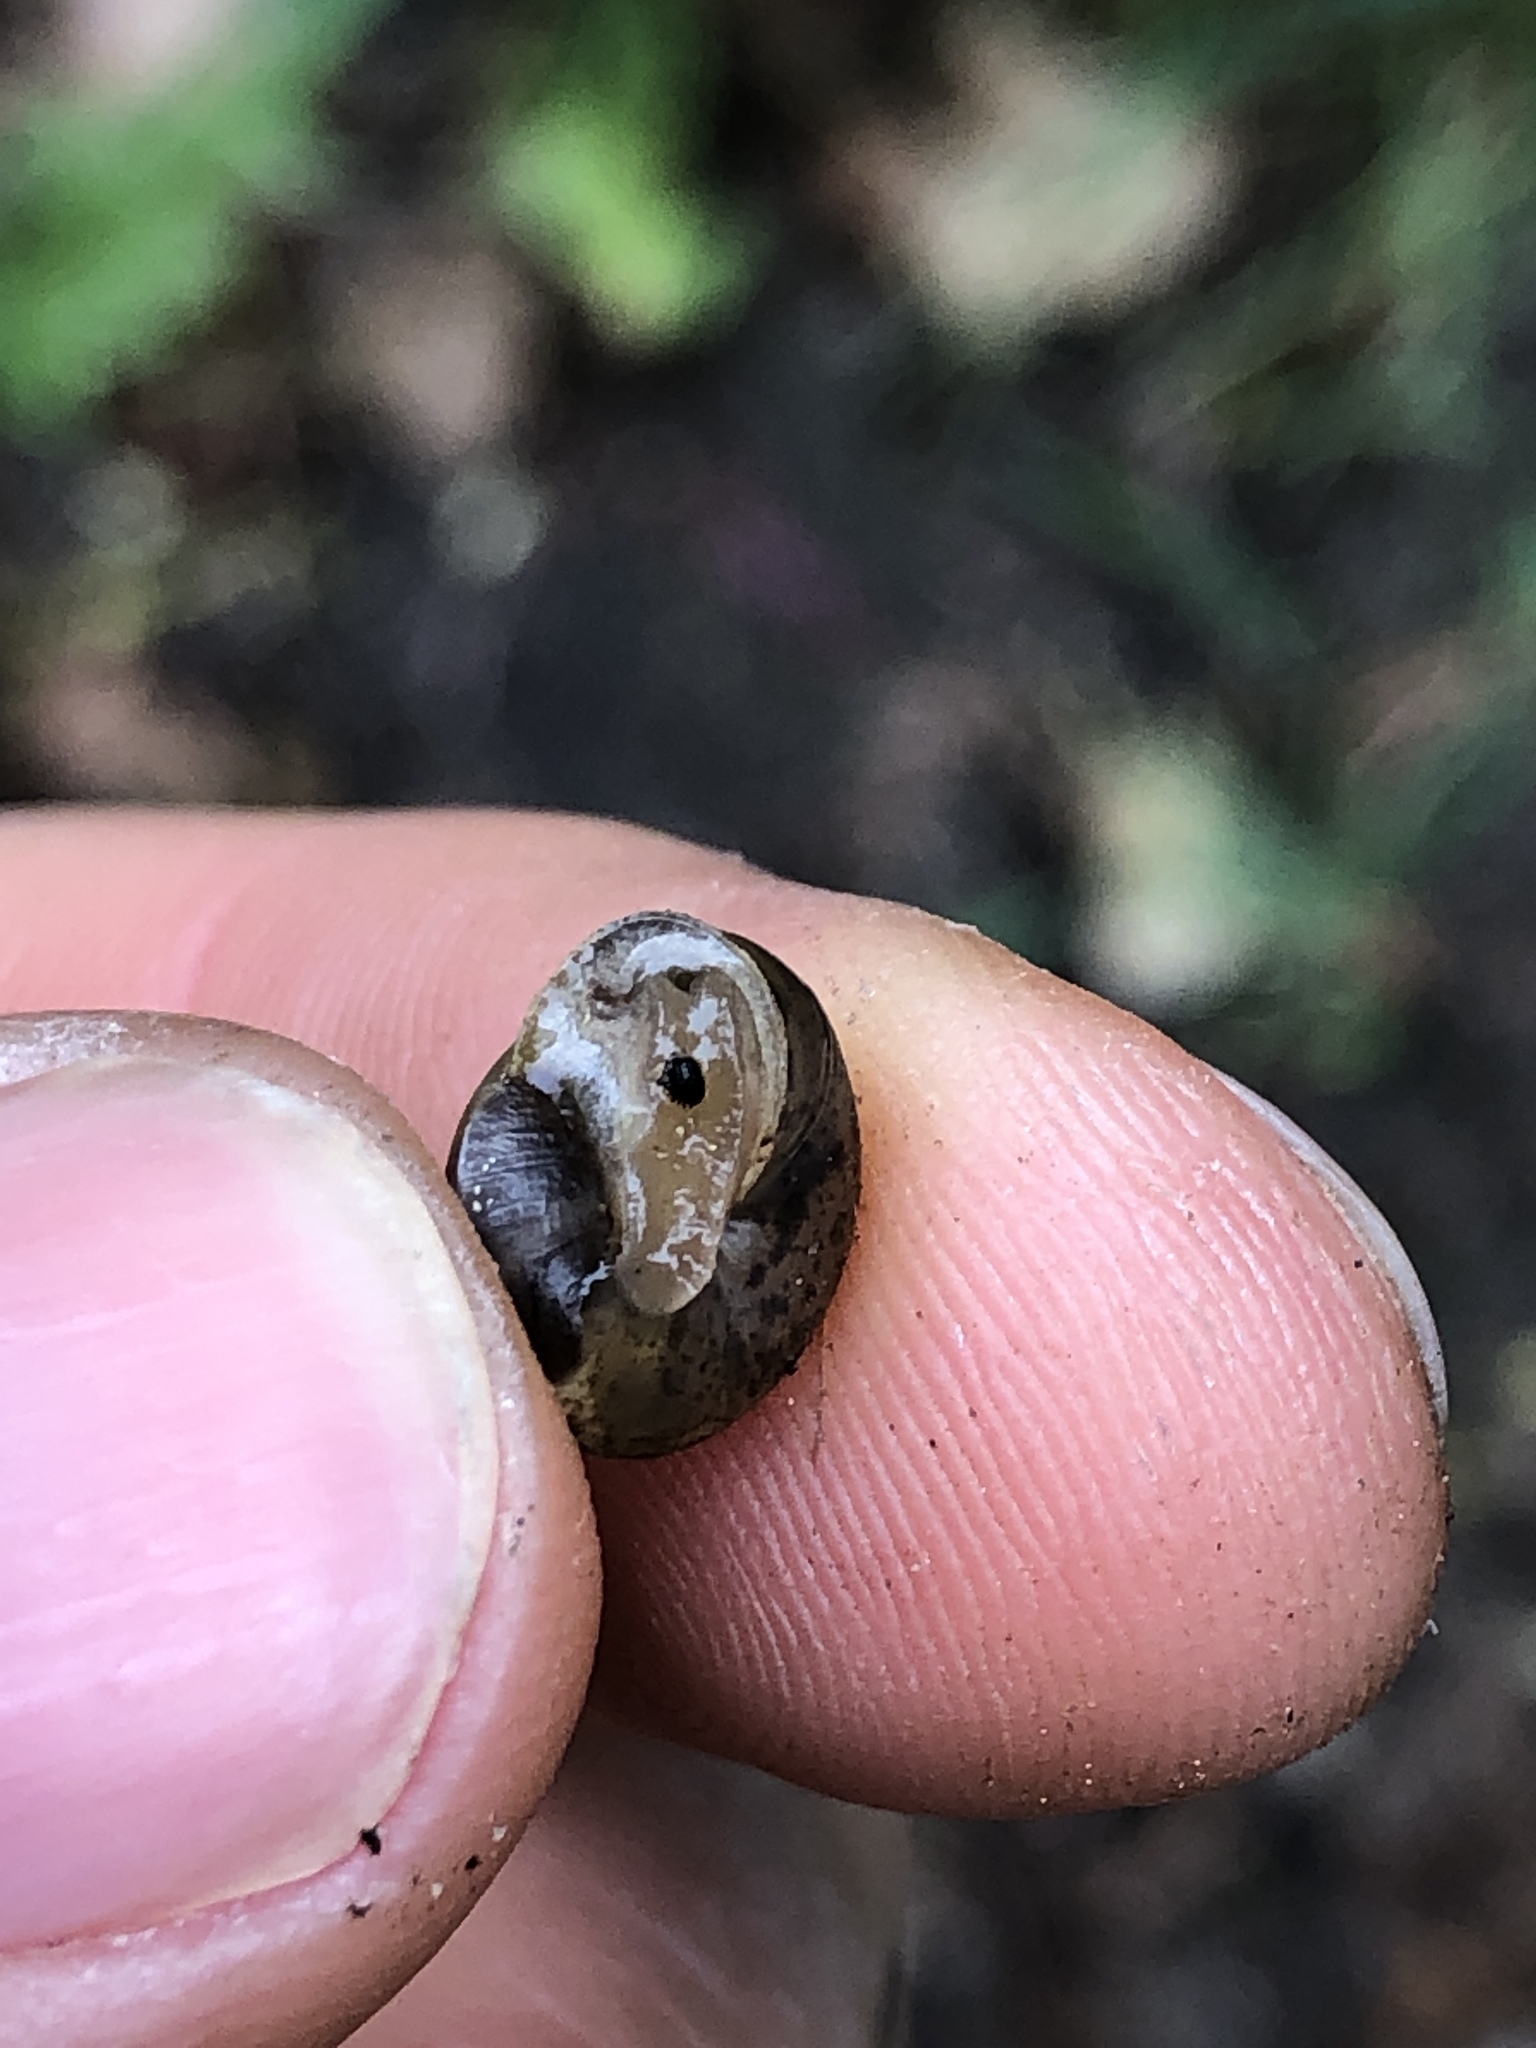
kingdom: Animalia
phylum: Mollusca
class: Gastropoda
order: Stylommatophora
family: Hygromiidae
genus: Hygromia
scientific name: Hygromia cinctella
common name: Girdled snail
